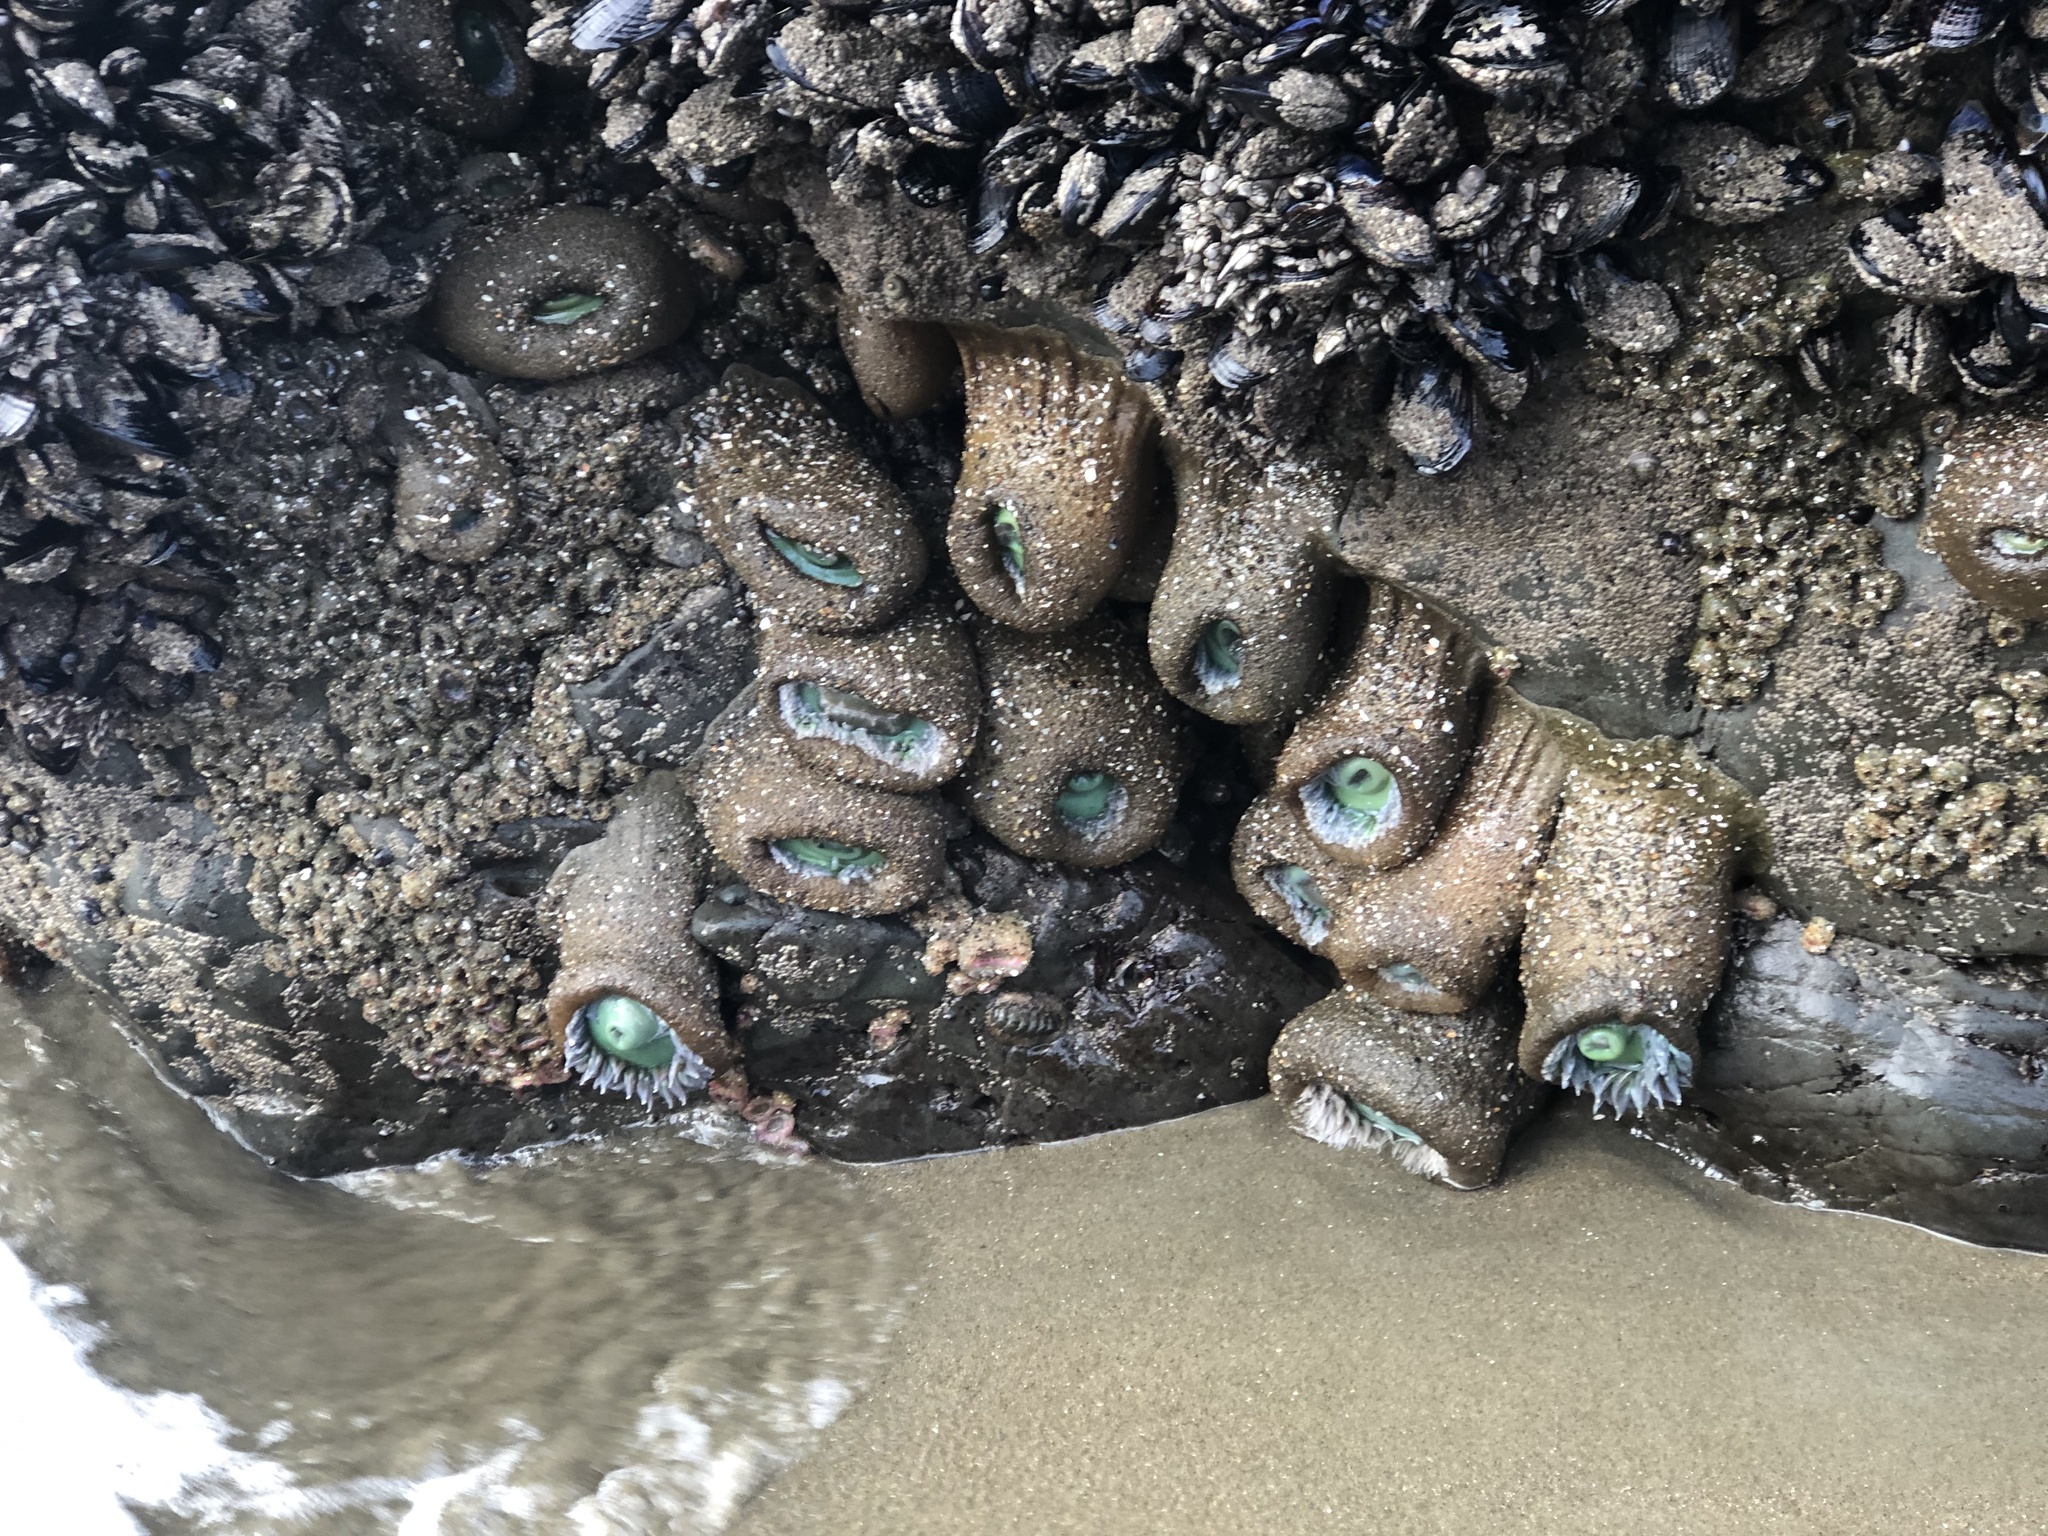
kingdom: Animalia
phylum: Cnidaria
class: Anthozoa
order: Actiniaria
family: Actiniidae
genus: Anthopleura
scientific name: Anthopleura xanthogrammica
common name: Giant green anemone
